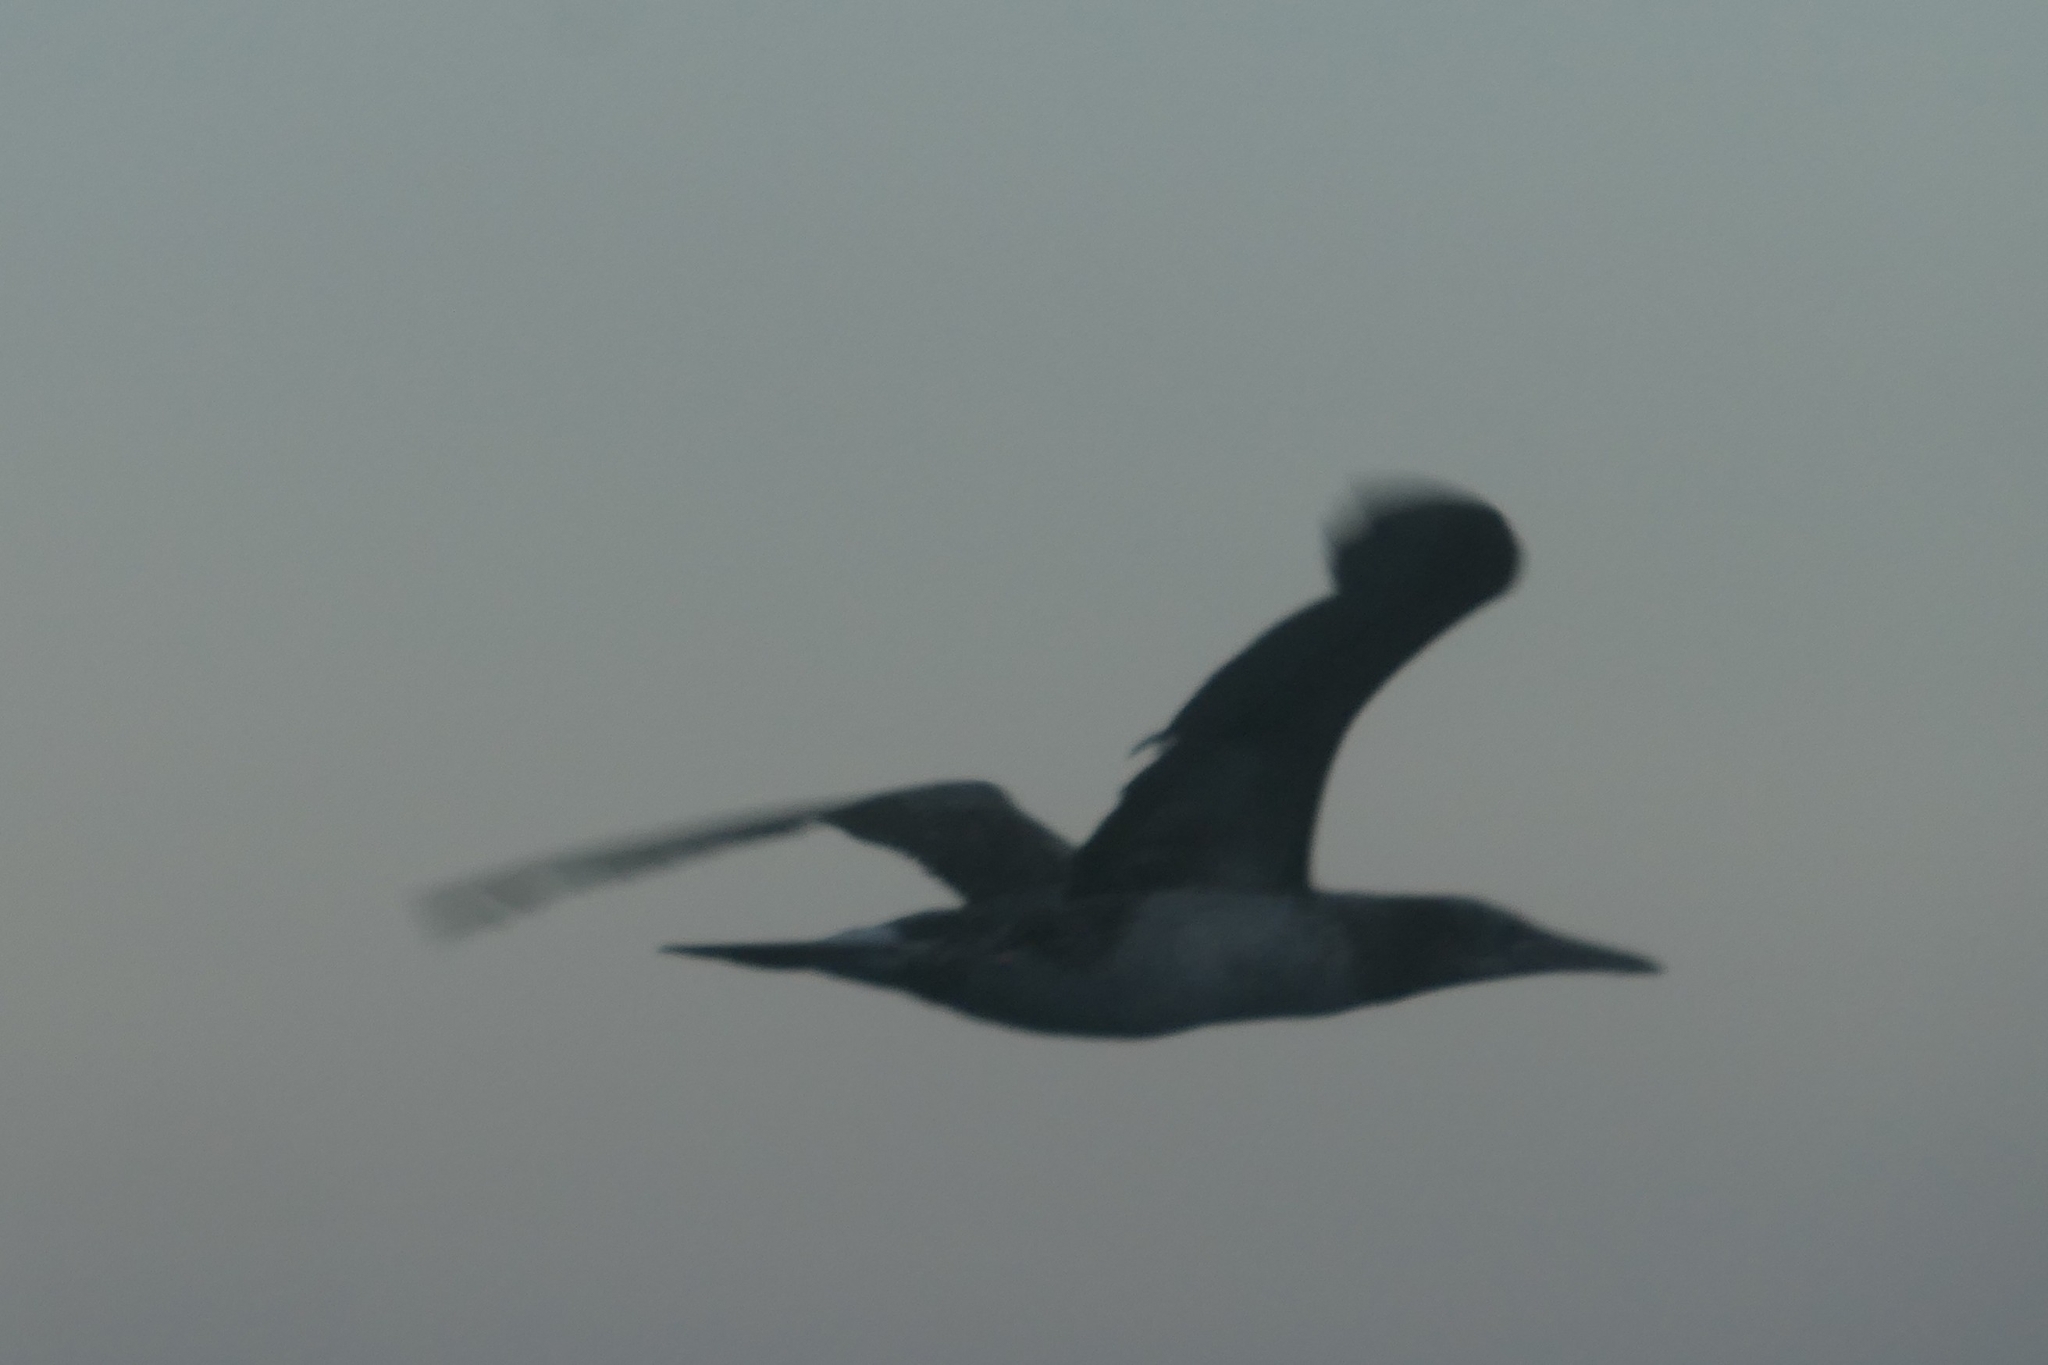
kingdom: Animalia
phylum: Chordata
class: Aves
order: Suliformes
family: Sulidae
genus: Morus
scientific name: Morus bassanus
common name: Northern gannet
